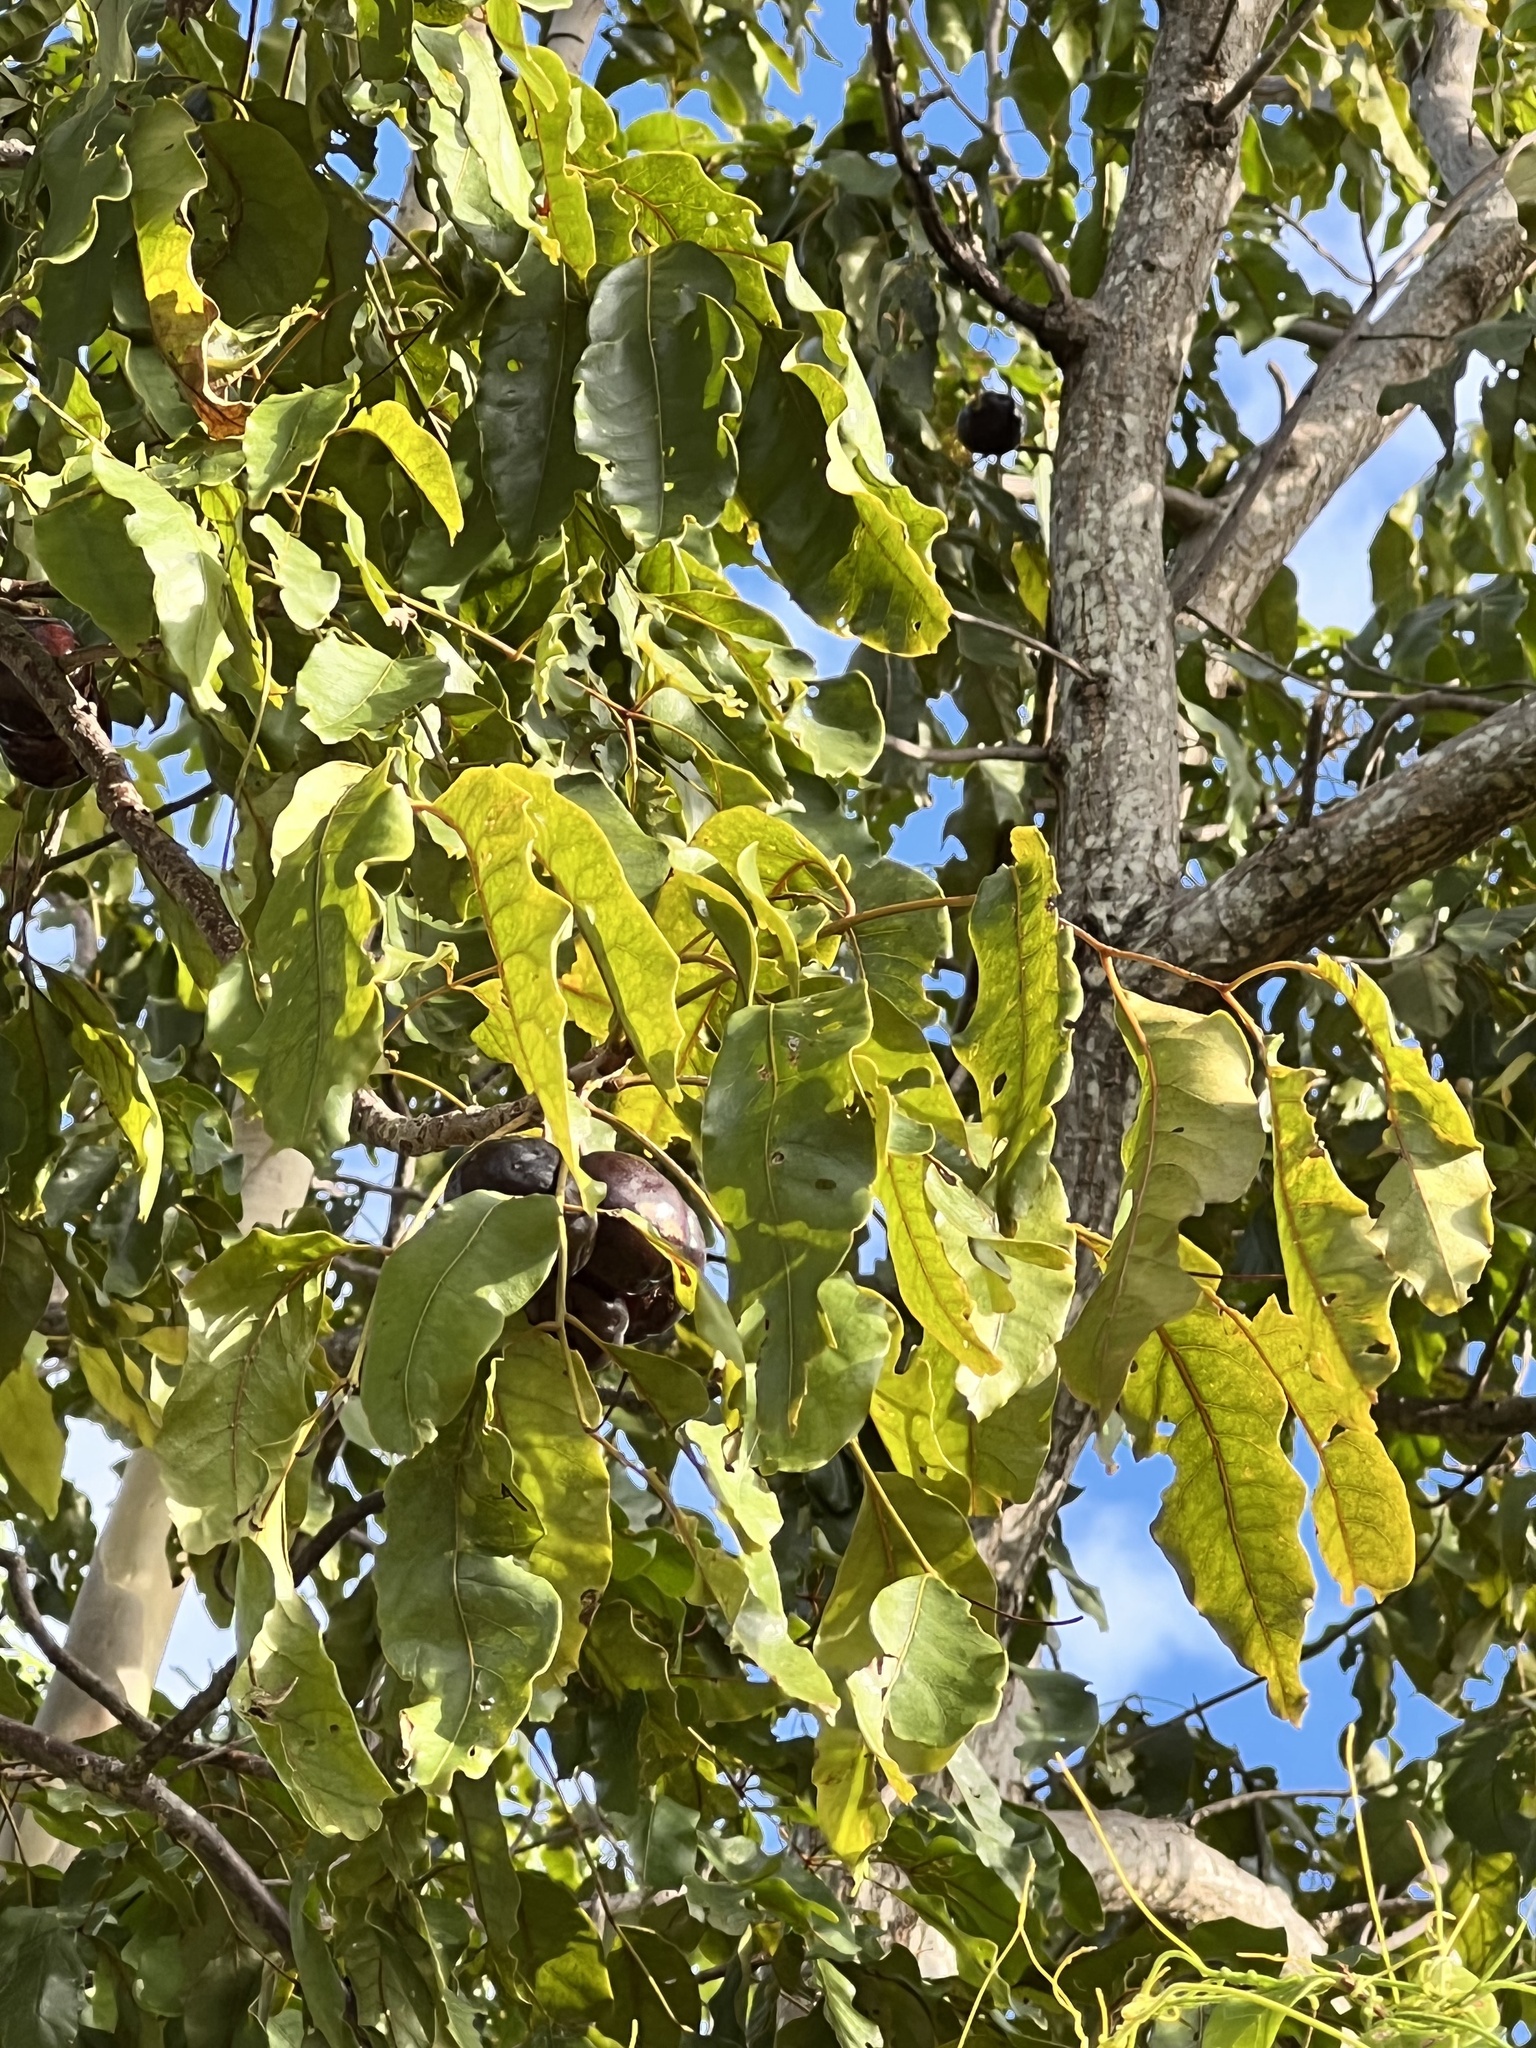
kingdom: Plantae
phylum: Tracheophyta
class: Magnoliopsida
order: Sapindales
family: Anacardiaceae
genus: Pleiogynium
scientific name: Pleiogynium timoriense
